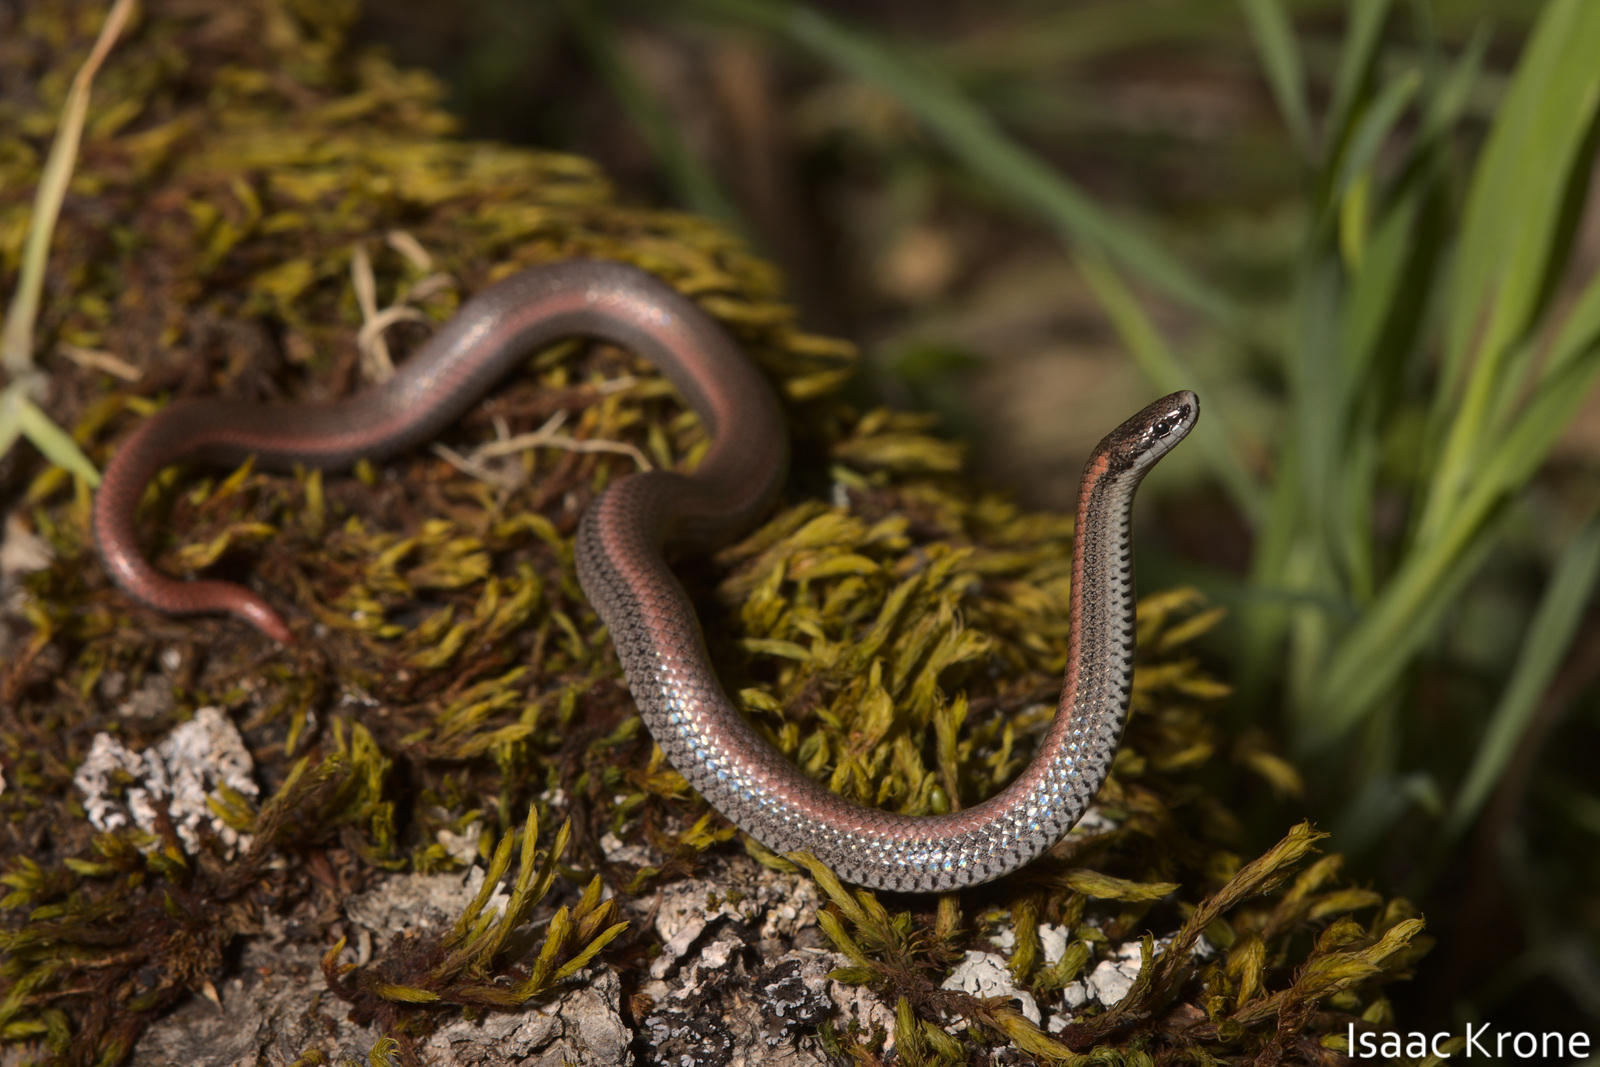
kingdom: Animalia
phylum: Chordata
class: Squamata
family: Colubridae
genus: Contia
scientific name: Contia tenuis
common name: Sharptail snake
